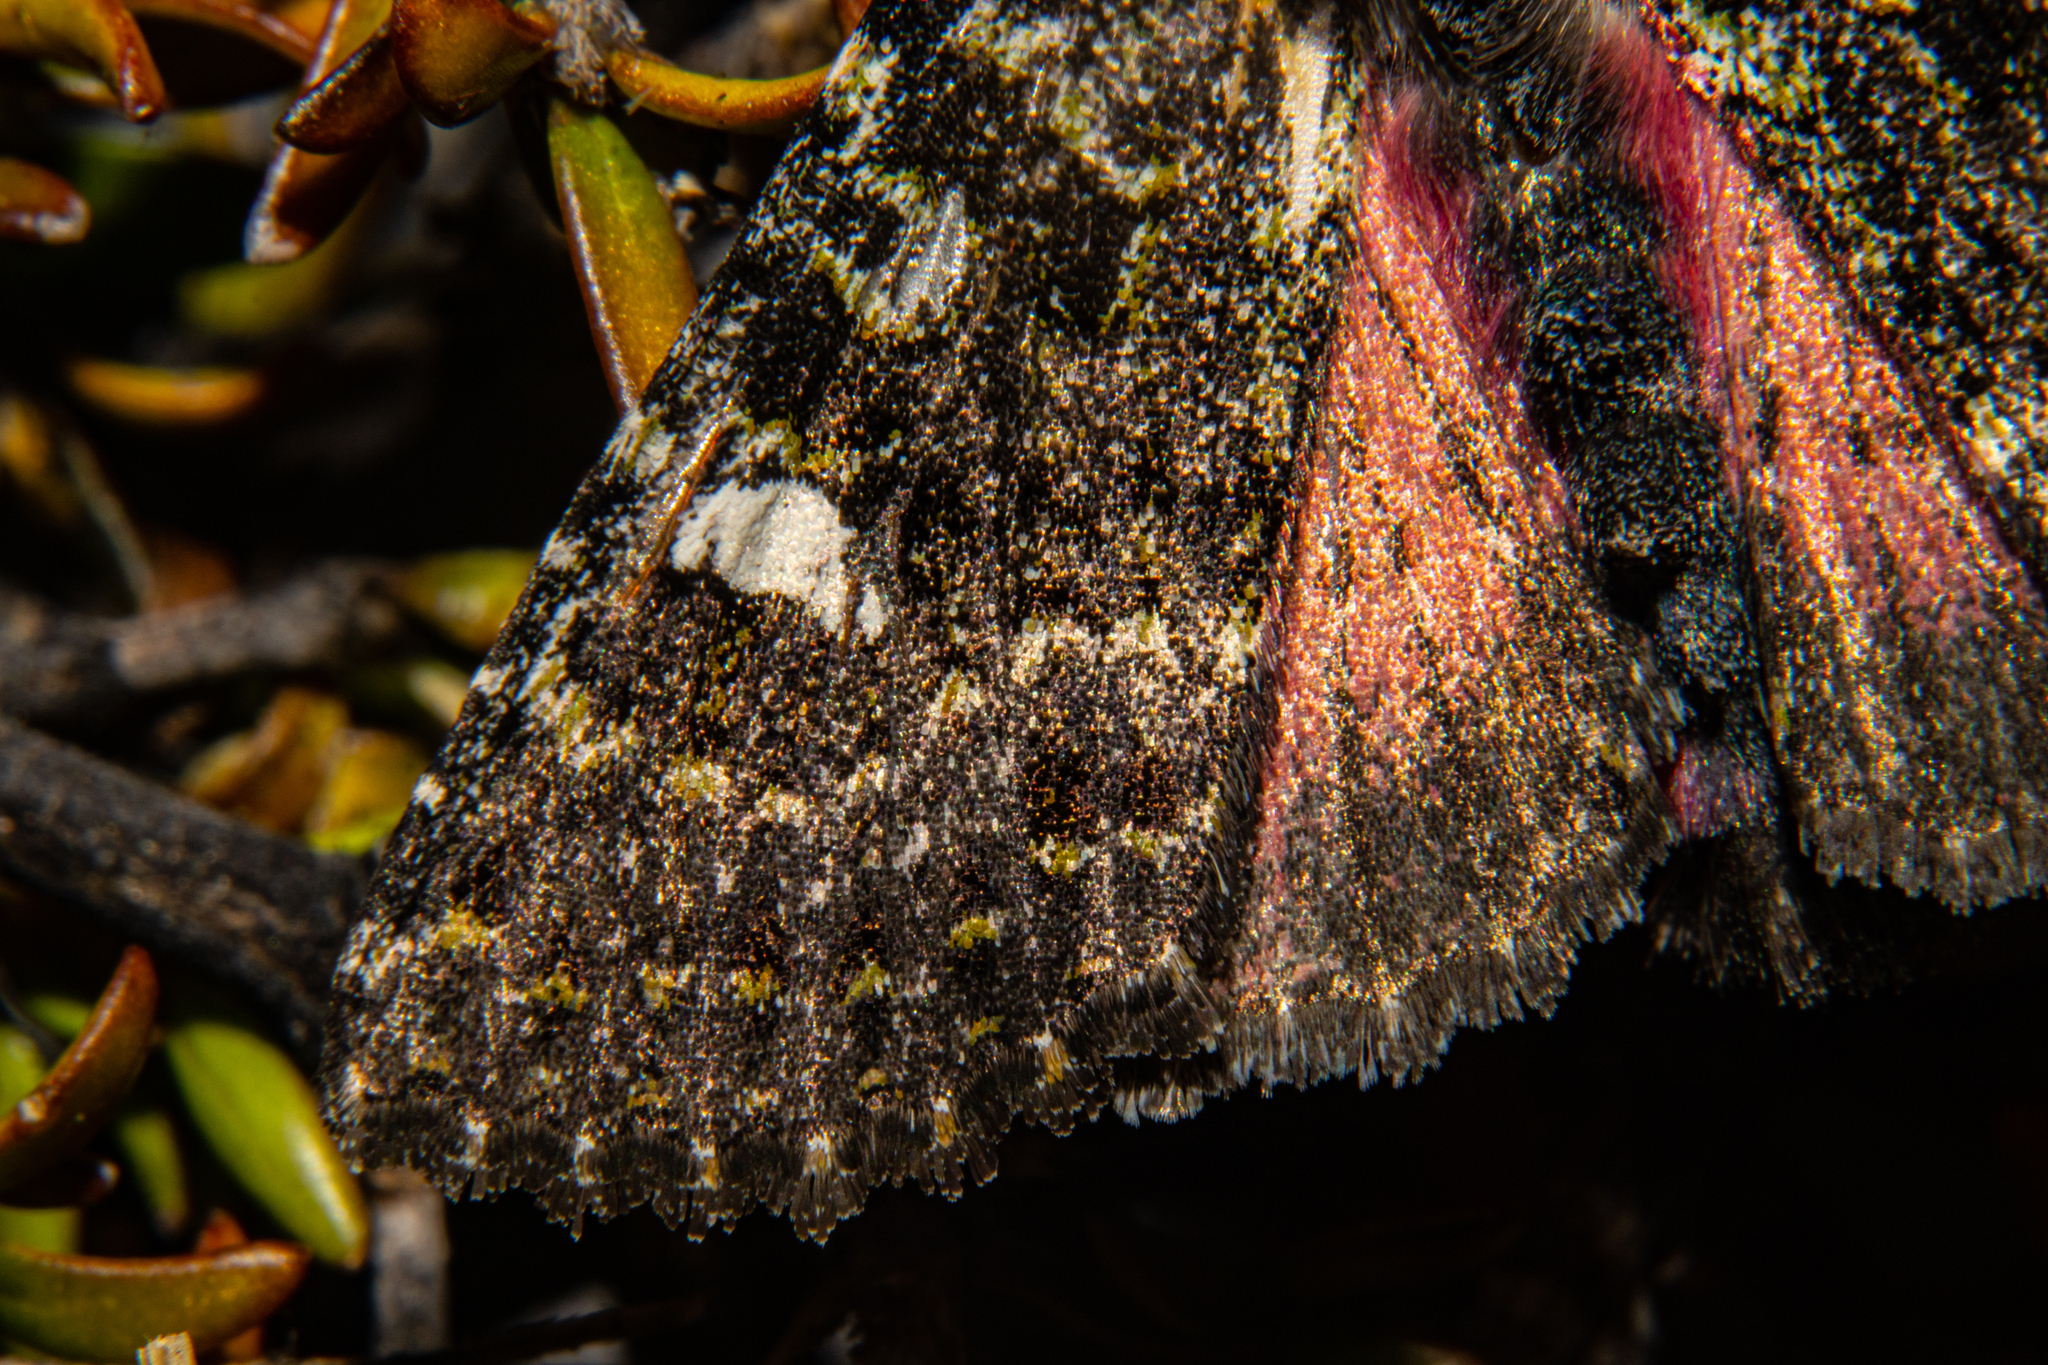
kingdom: Animalia
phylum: Arthropoda
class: Insecta
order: Lepidoptera
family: Noctuidae
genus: Meterana
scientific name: Meterana meyricci
